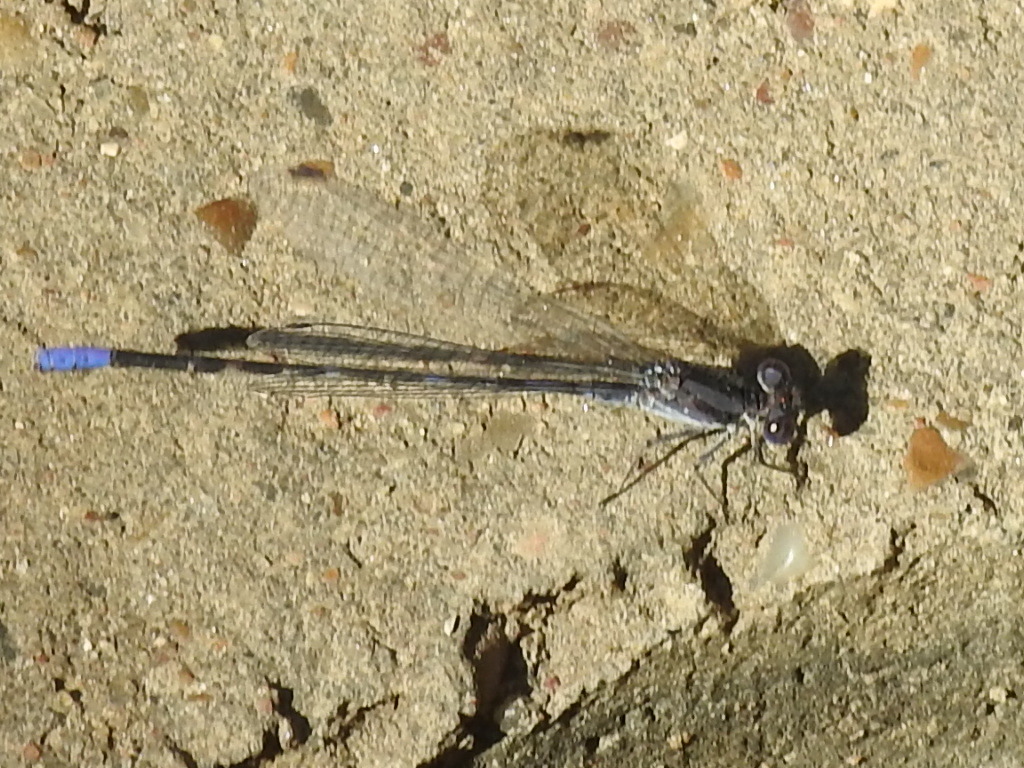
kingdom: Animalia
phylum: Arthropoda
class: Insecta
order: Odonata
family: Coenagrionidae
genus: Argia
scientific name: Argia immunda
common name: Kiowa dancer
